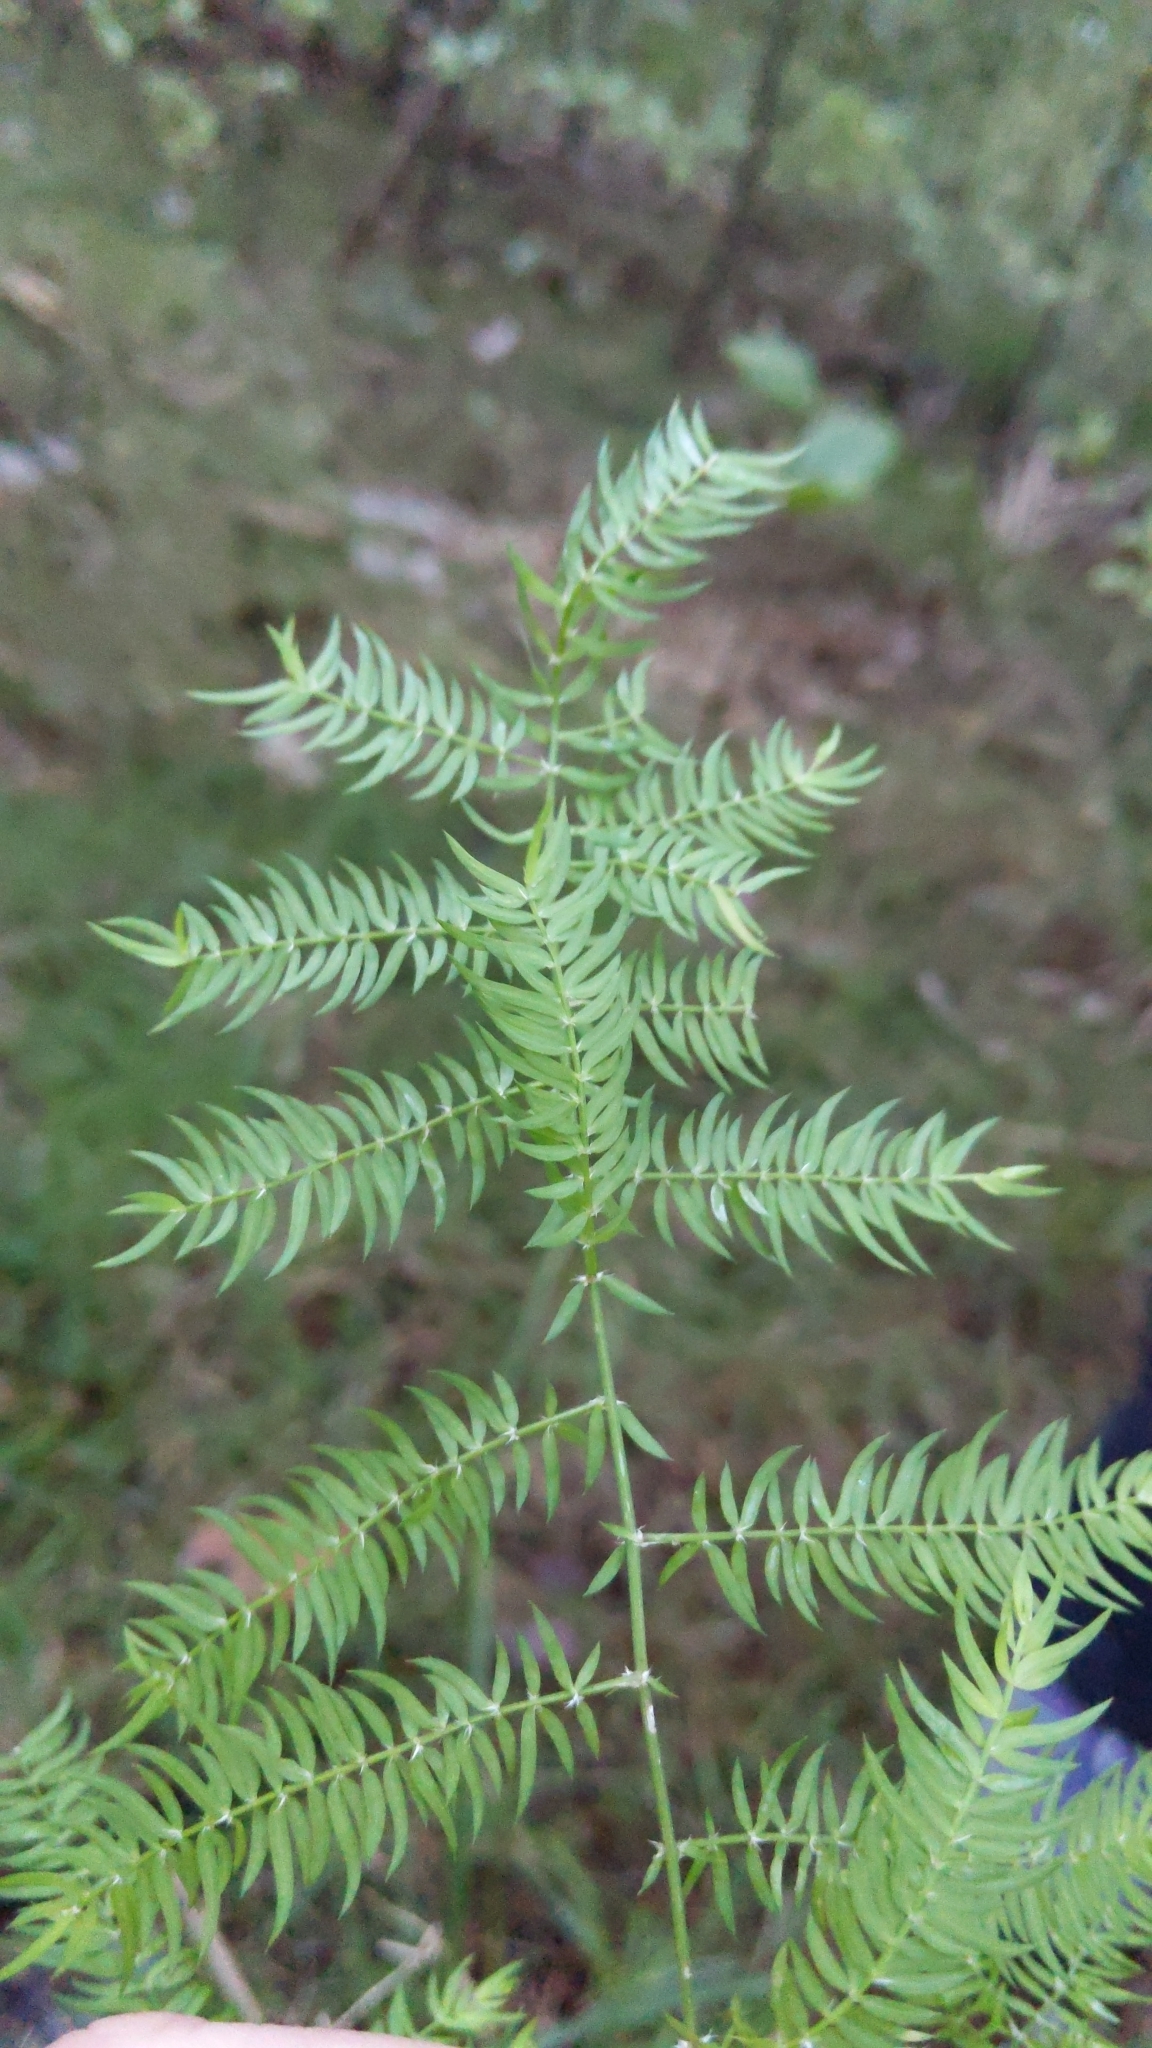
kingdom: Plantae
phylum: Tracheophyta
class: Liliopsida
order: Asparagales
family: Asparagaceae
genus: Asparagus
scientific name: Asparagus scandens
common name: Asparagus-fern
